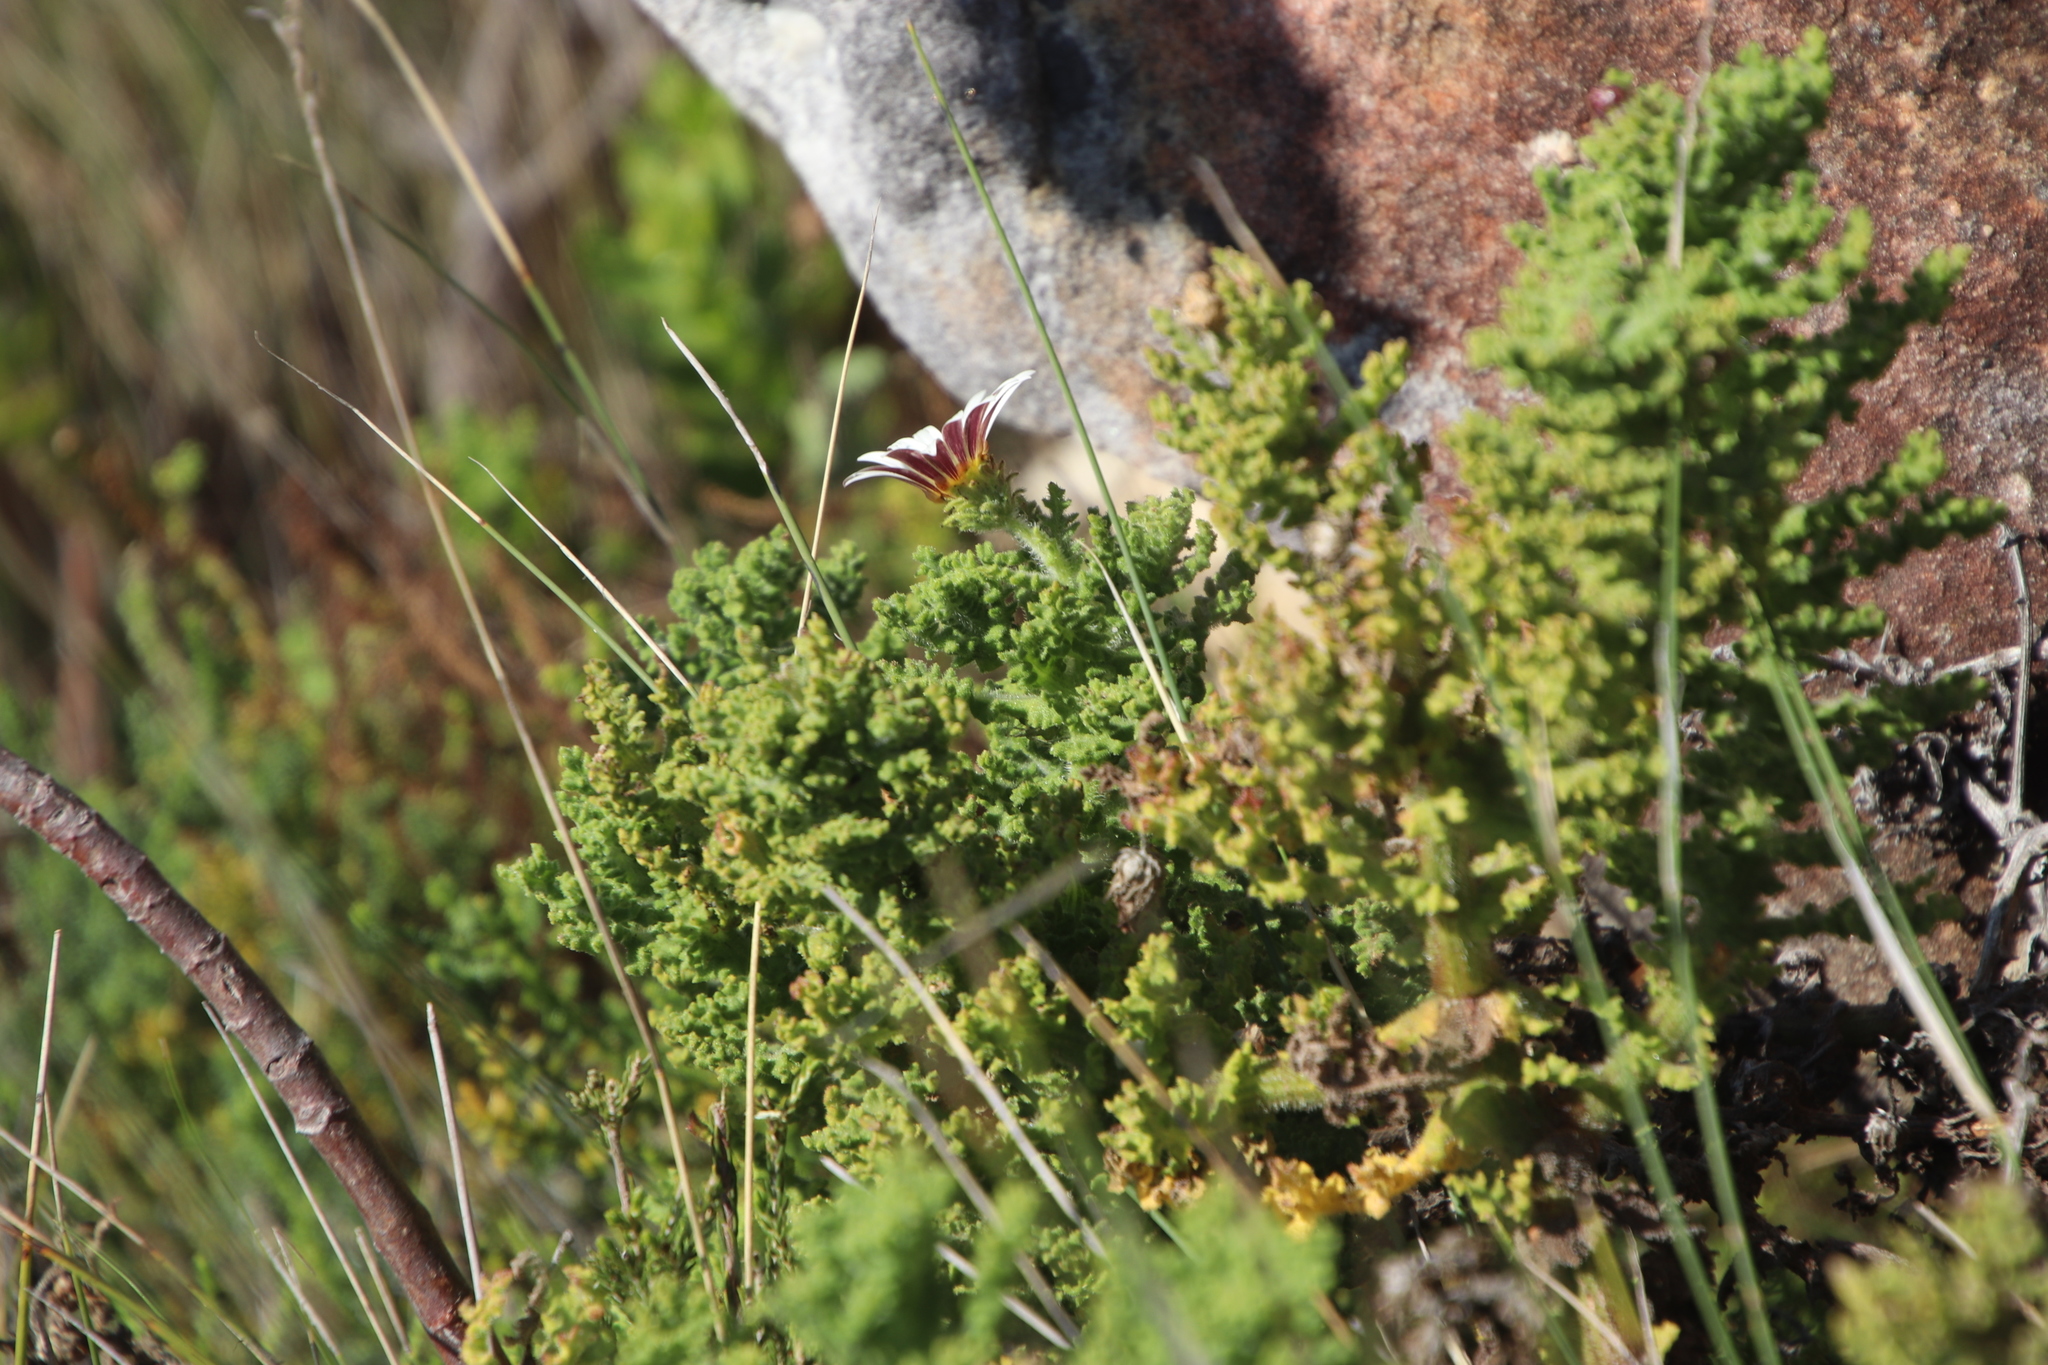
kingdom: Plantae
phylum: Tracheophyta
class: Magnoliopsida
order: Asterales
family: Asteraceae
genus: Arctotis
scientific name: Arctotis aspera
